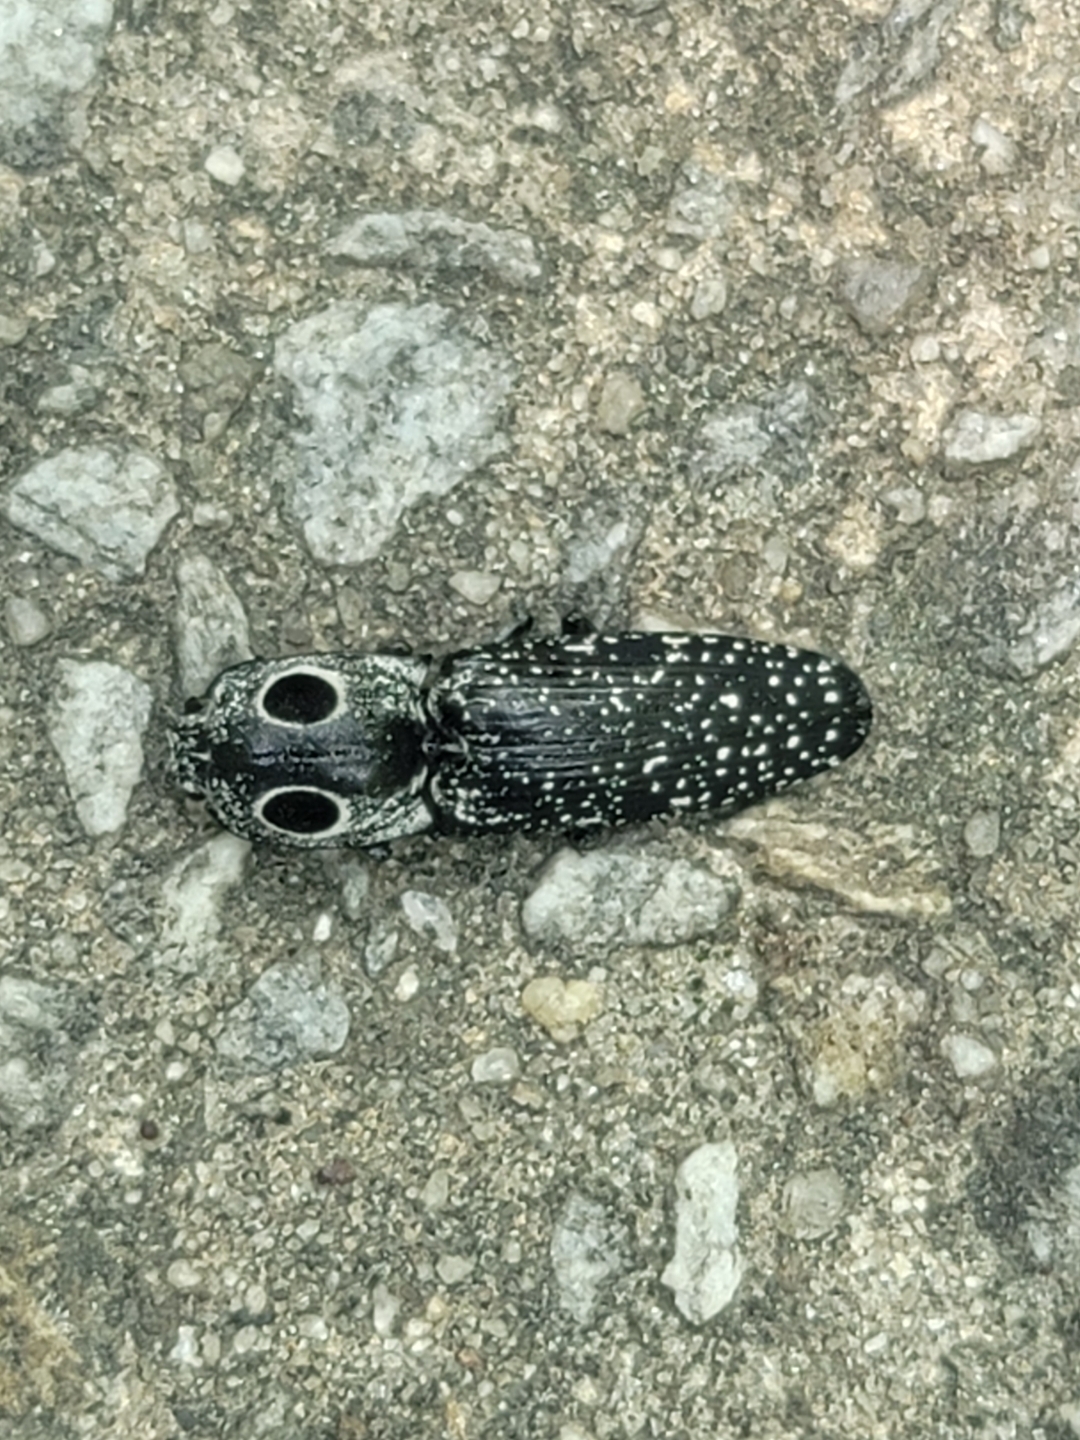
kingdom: Animalia
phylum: Arthropoda
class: Insecta
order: Coleoptera
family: Elateridae
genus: Alaus
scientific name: Alaus oculatus
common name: Eastern eyed click beetle
